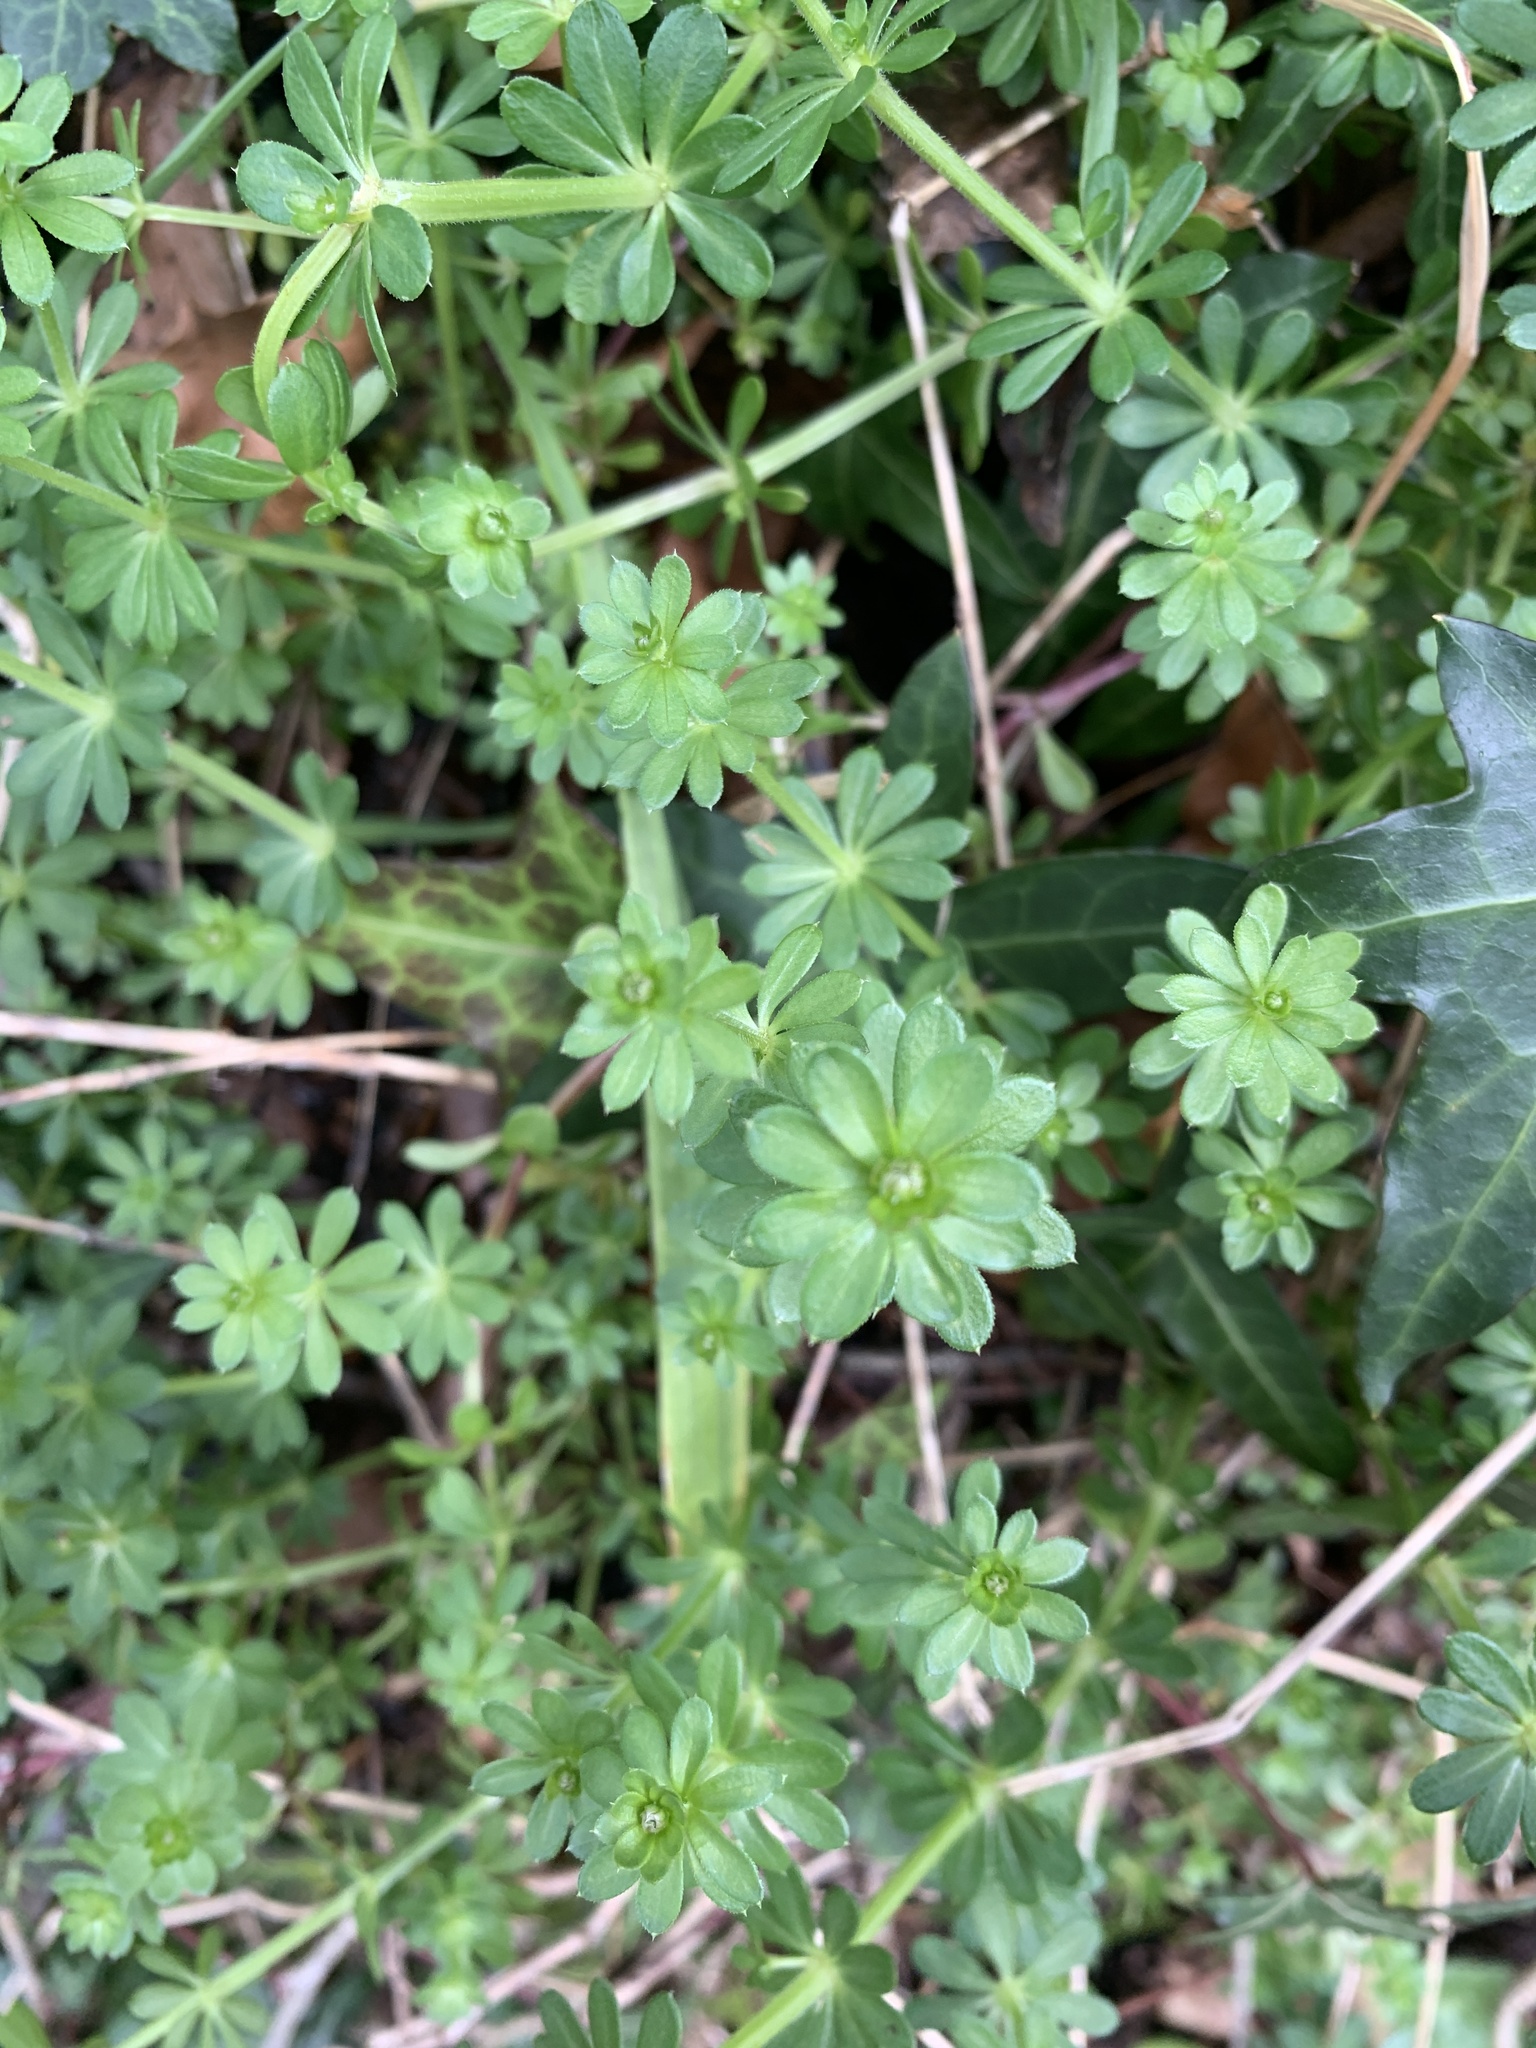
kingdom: Plantae
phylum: Tracheophyta
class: Magnoliopsida
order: Gentianales
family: Rubiaceae
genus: Galium
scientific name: Galium aparine
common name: Cleavers
